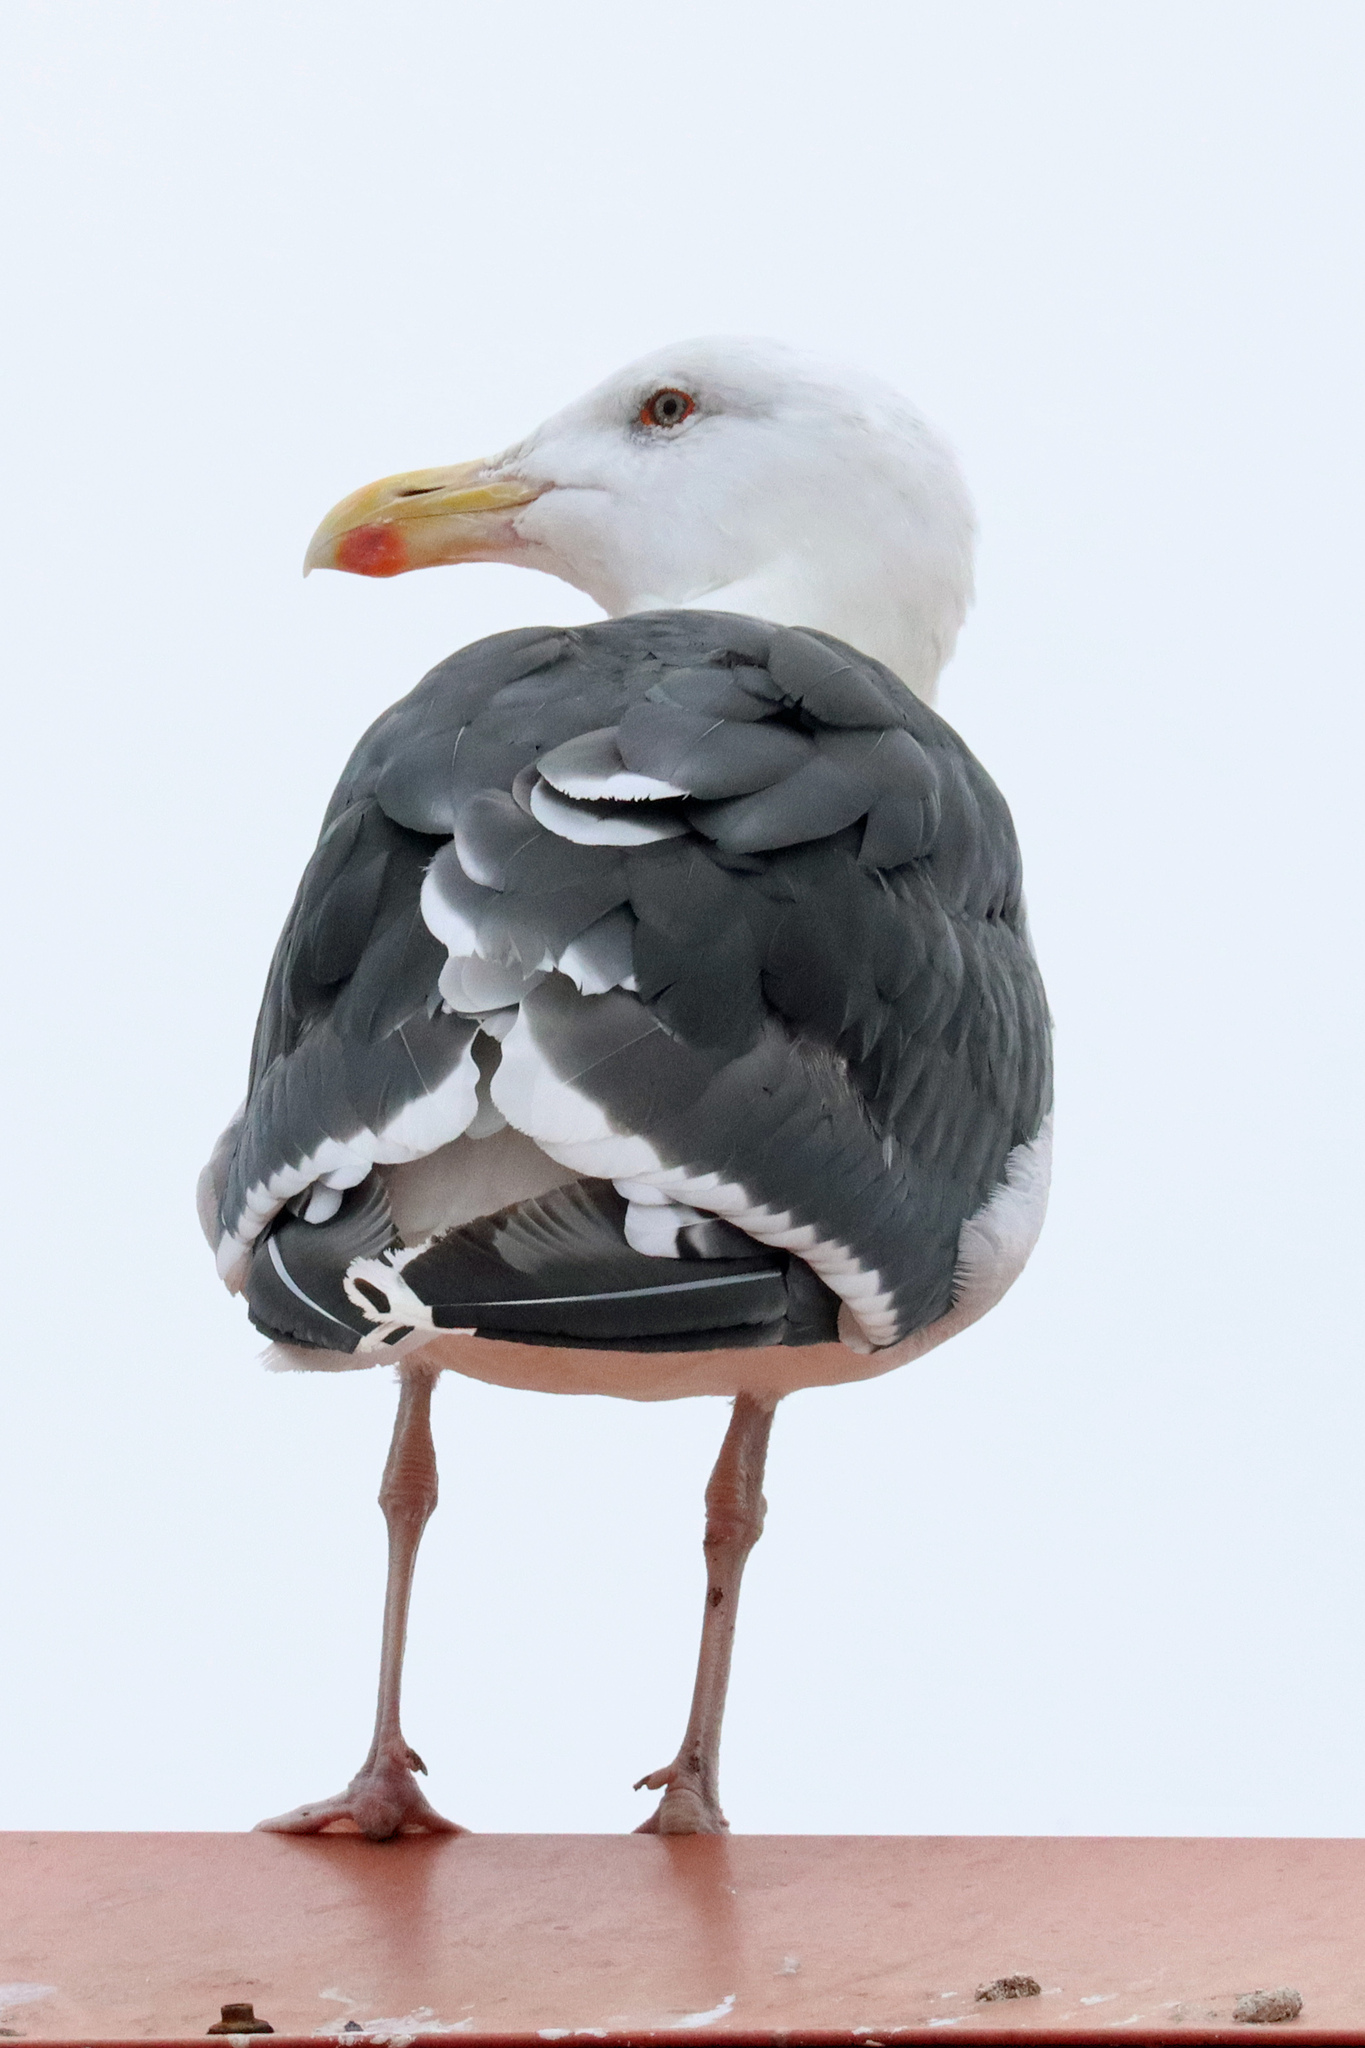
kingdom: Animalia
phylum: Chordata
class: Aves
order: Charadriiformes
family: Laridae
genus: Larus
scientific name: Larus marinus
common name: Great black-backed gull
